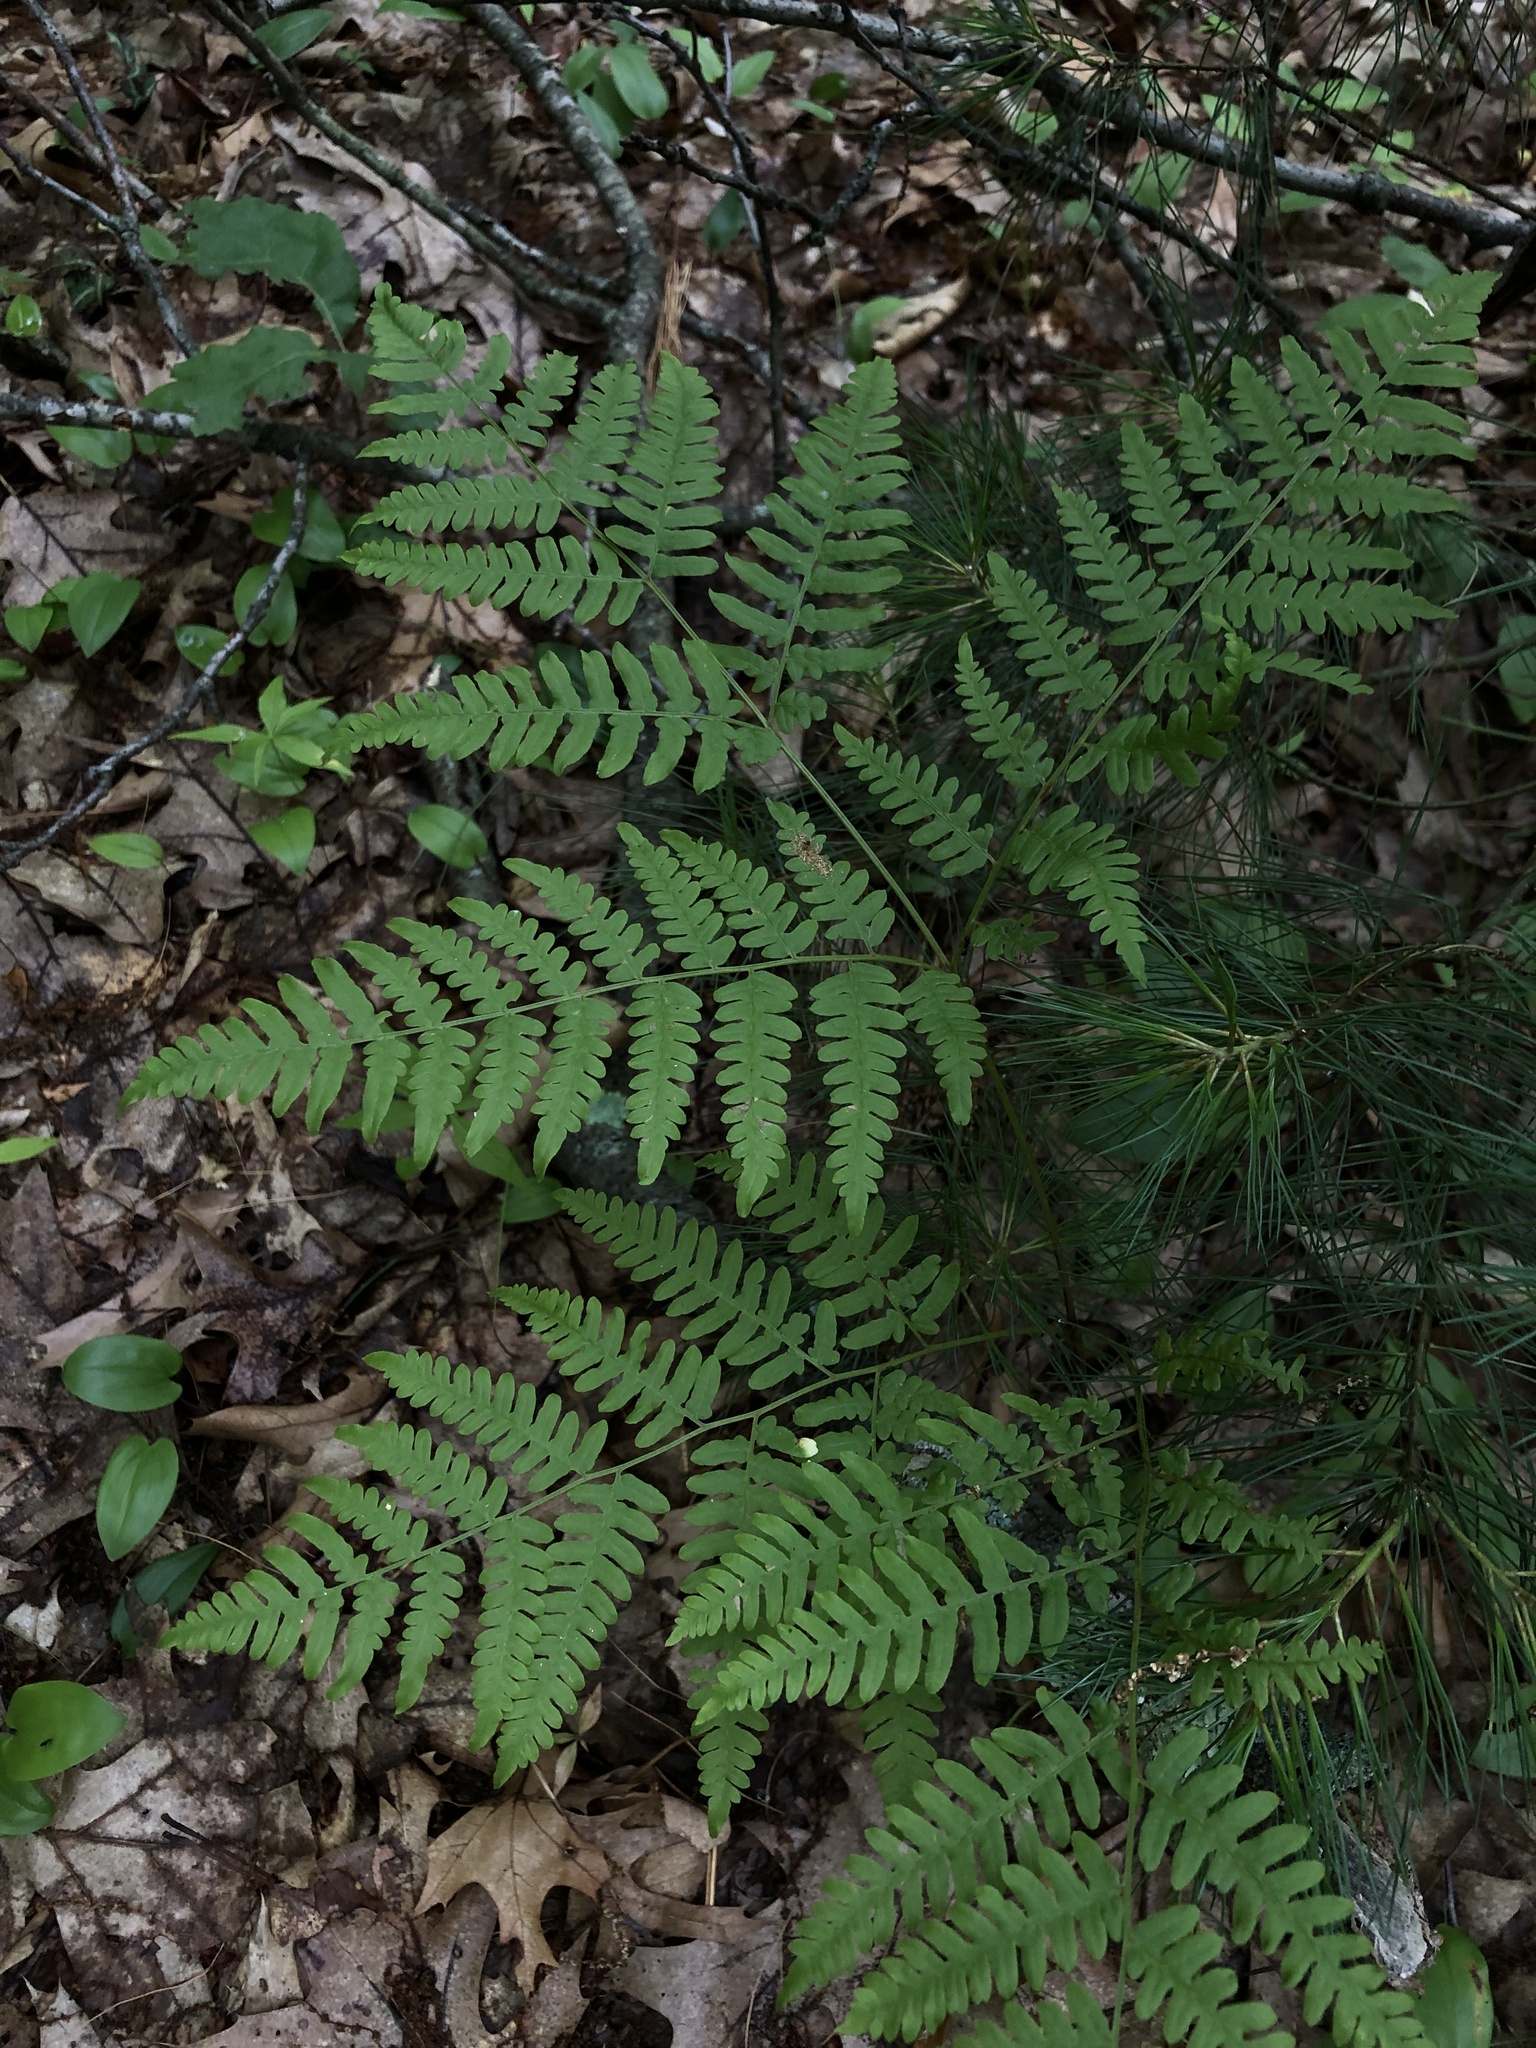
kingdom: Plantae
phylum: Tracheophyta
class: Polypodiopsida
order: Polypodiales
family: Dennstaedtiaceae
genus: Pteridium
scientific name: Pteridium aquilinum
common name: Bracken
